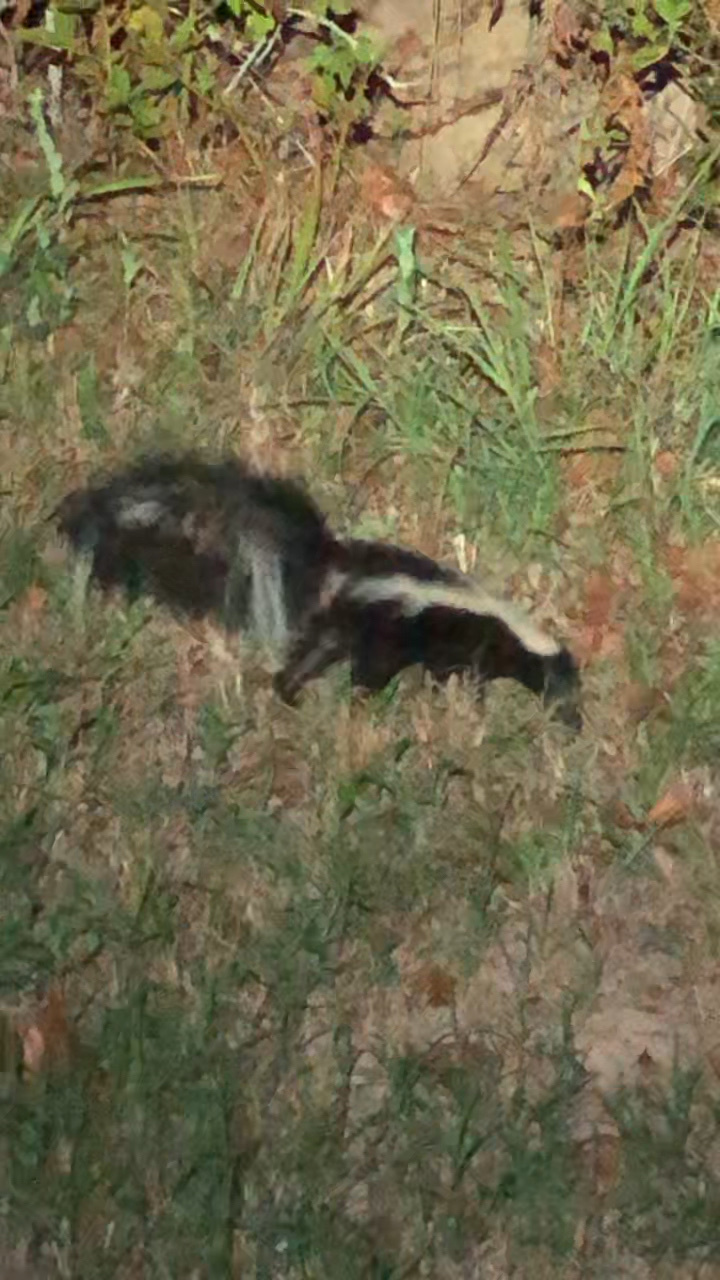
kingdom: Animalia
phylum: Chordata
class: Mammalia
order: Carnivora
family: Mephitidae
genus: Mephitis
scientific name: Mephitis mephitis
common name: Striped skunk
